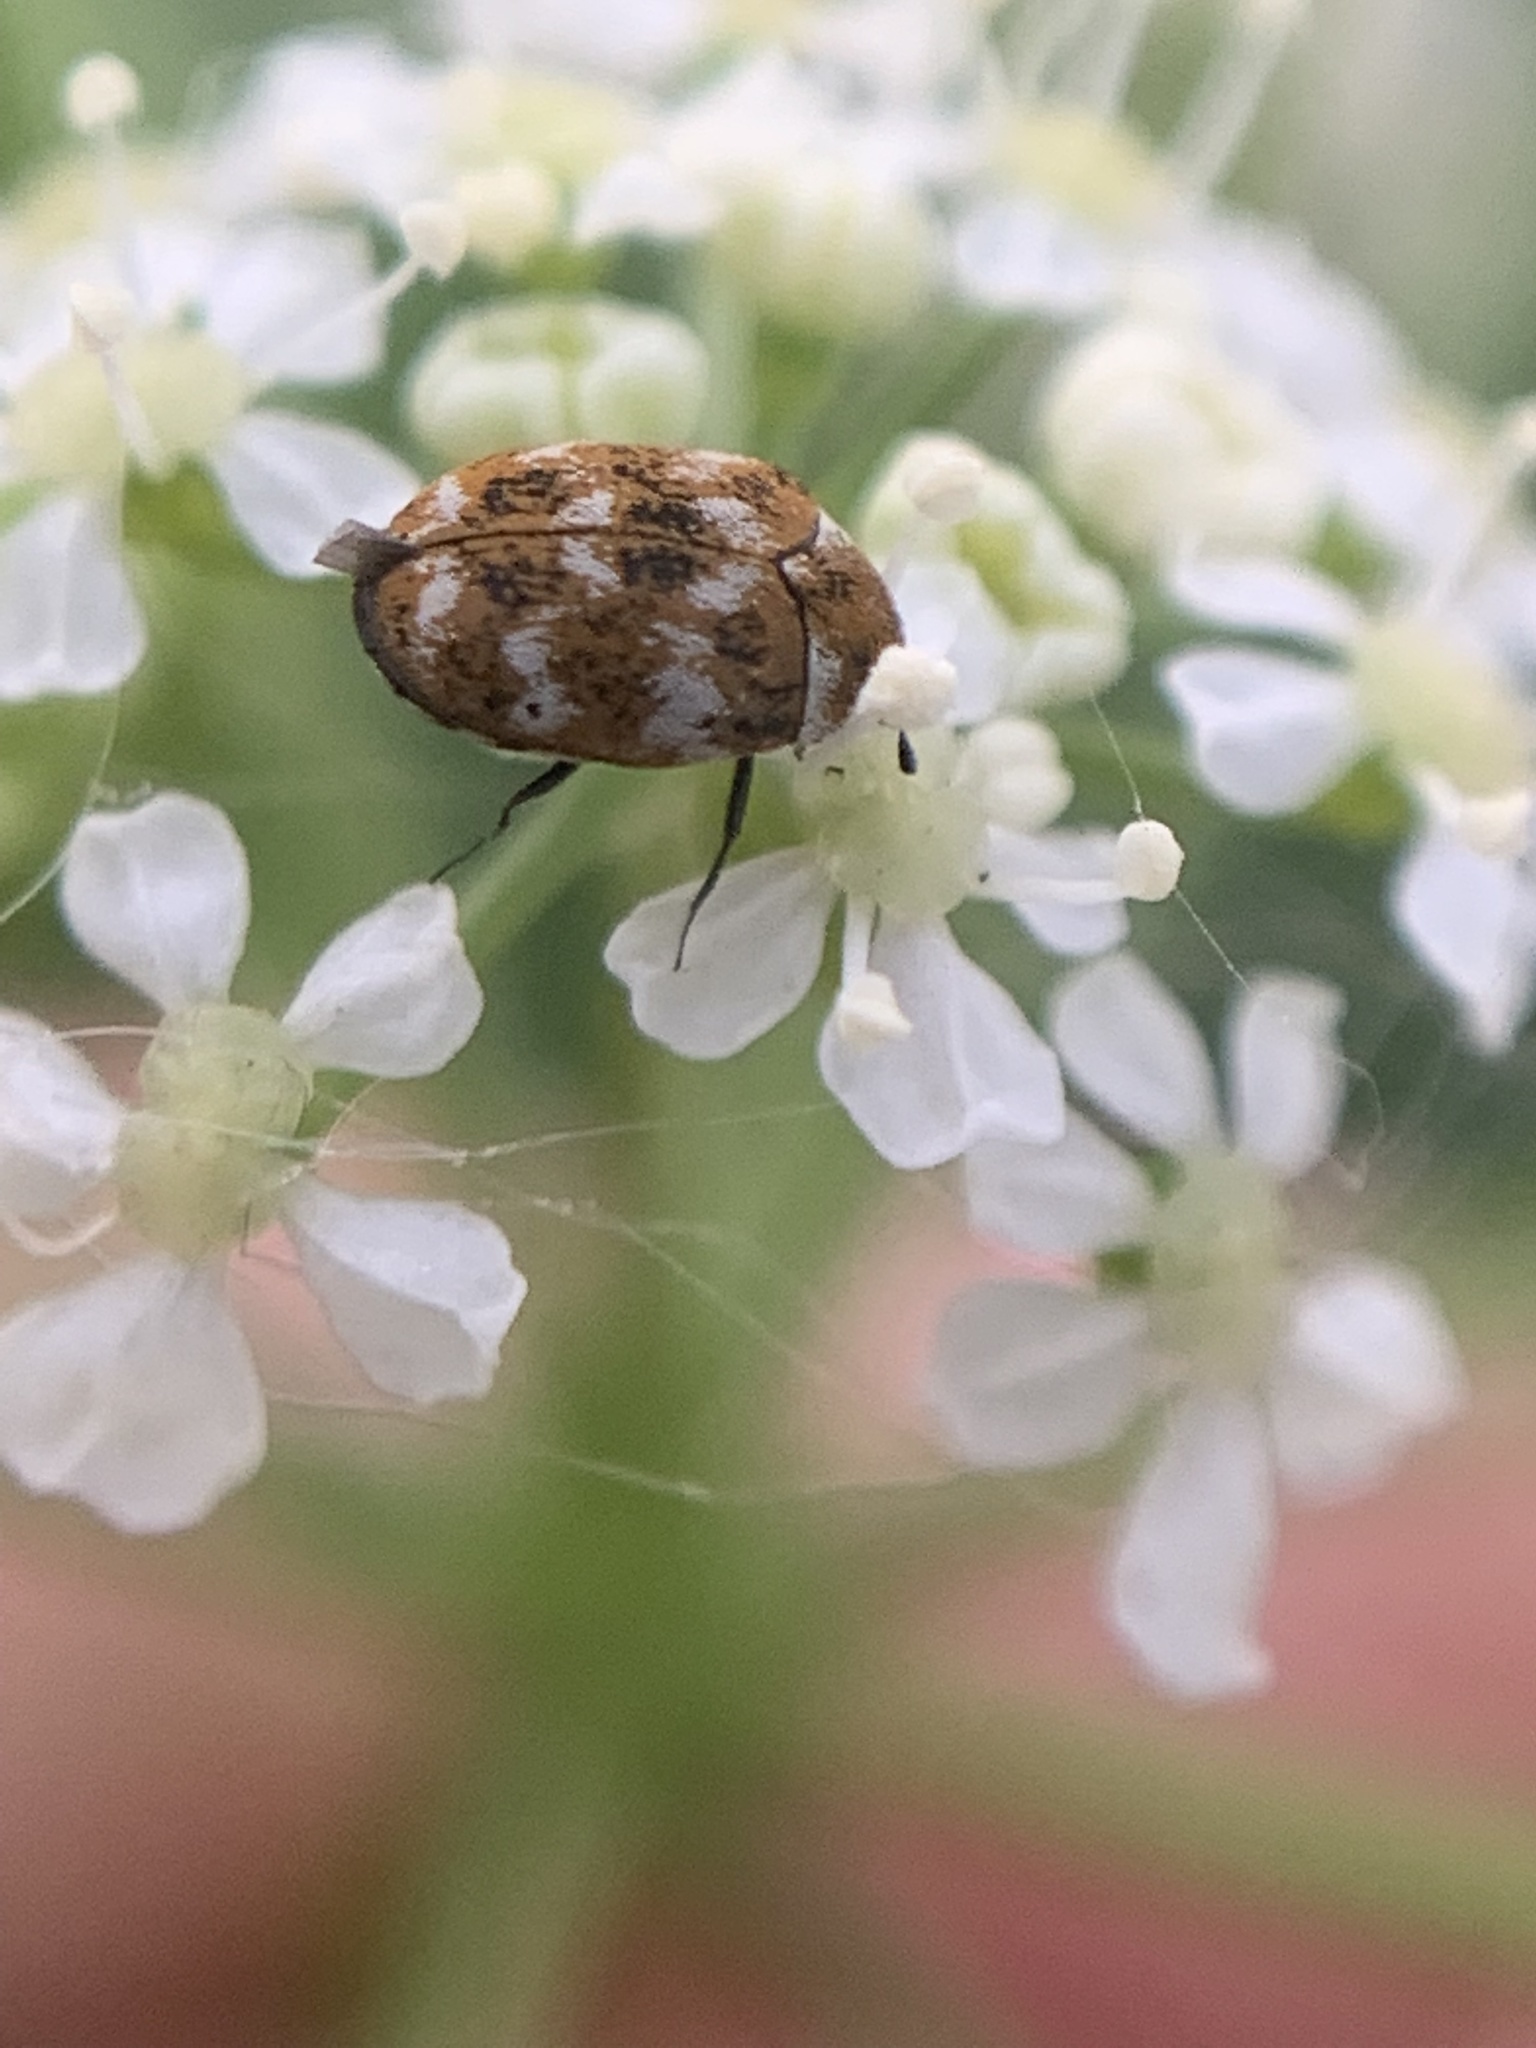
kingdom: Animalia
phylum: Arthropoda
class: Insecta
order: Coleoptera
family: Dermestidae
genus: Anthrenus
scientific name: Anthrenus verbasci
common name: Varied carpet beetle
